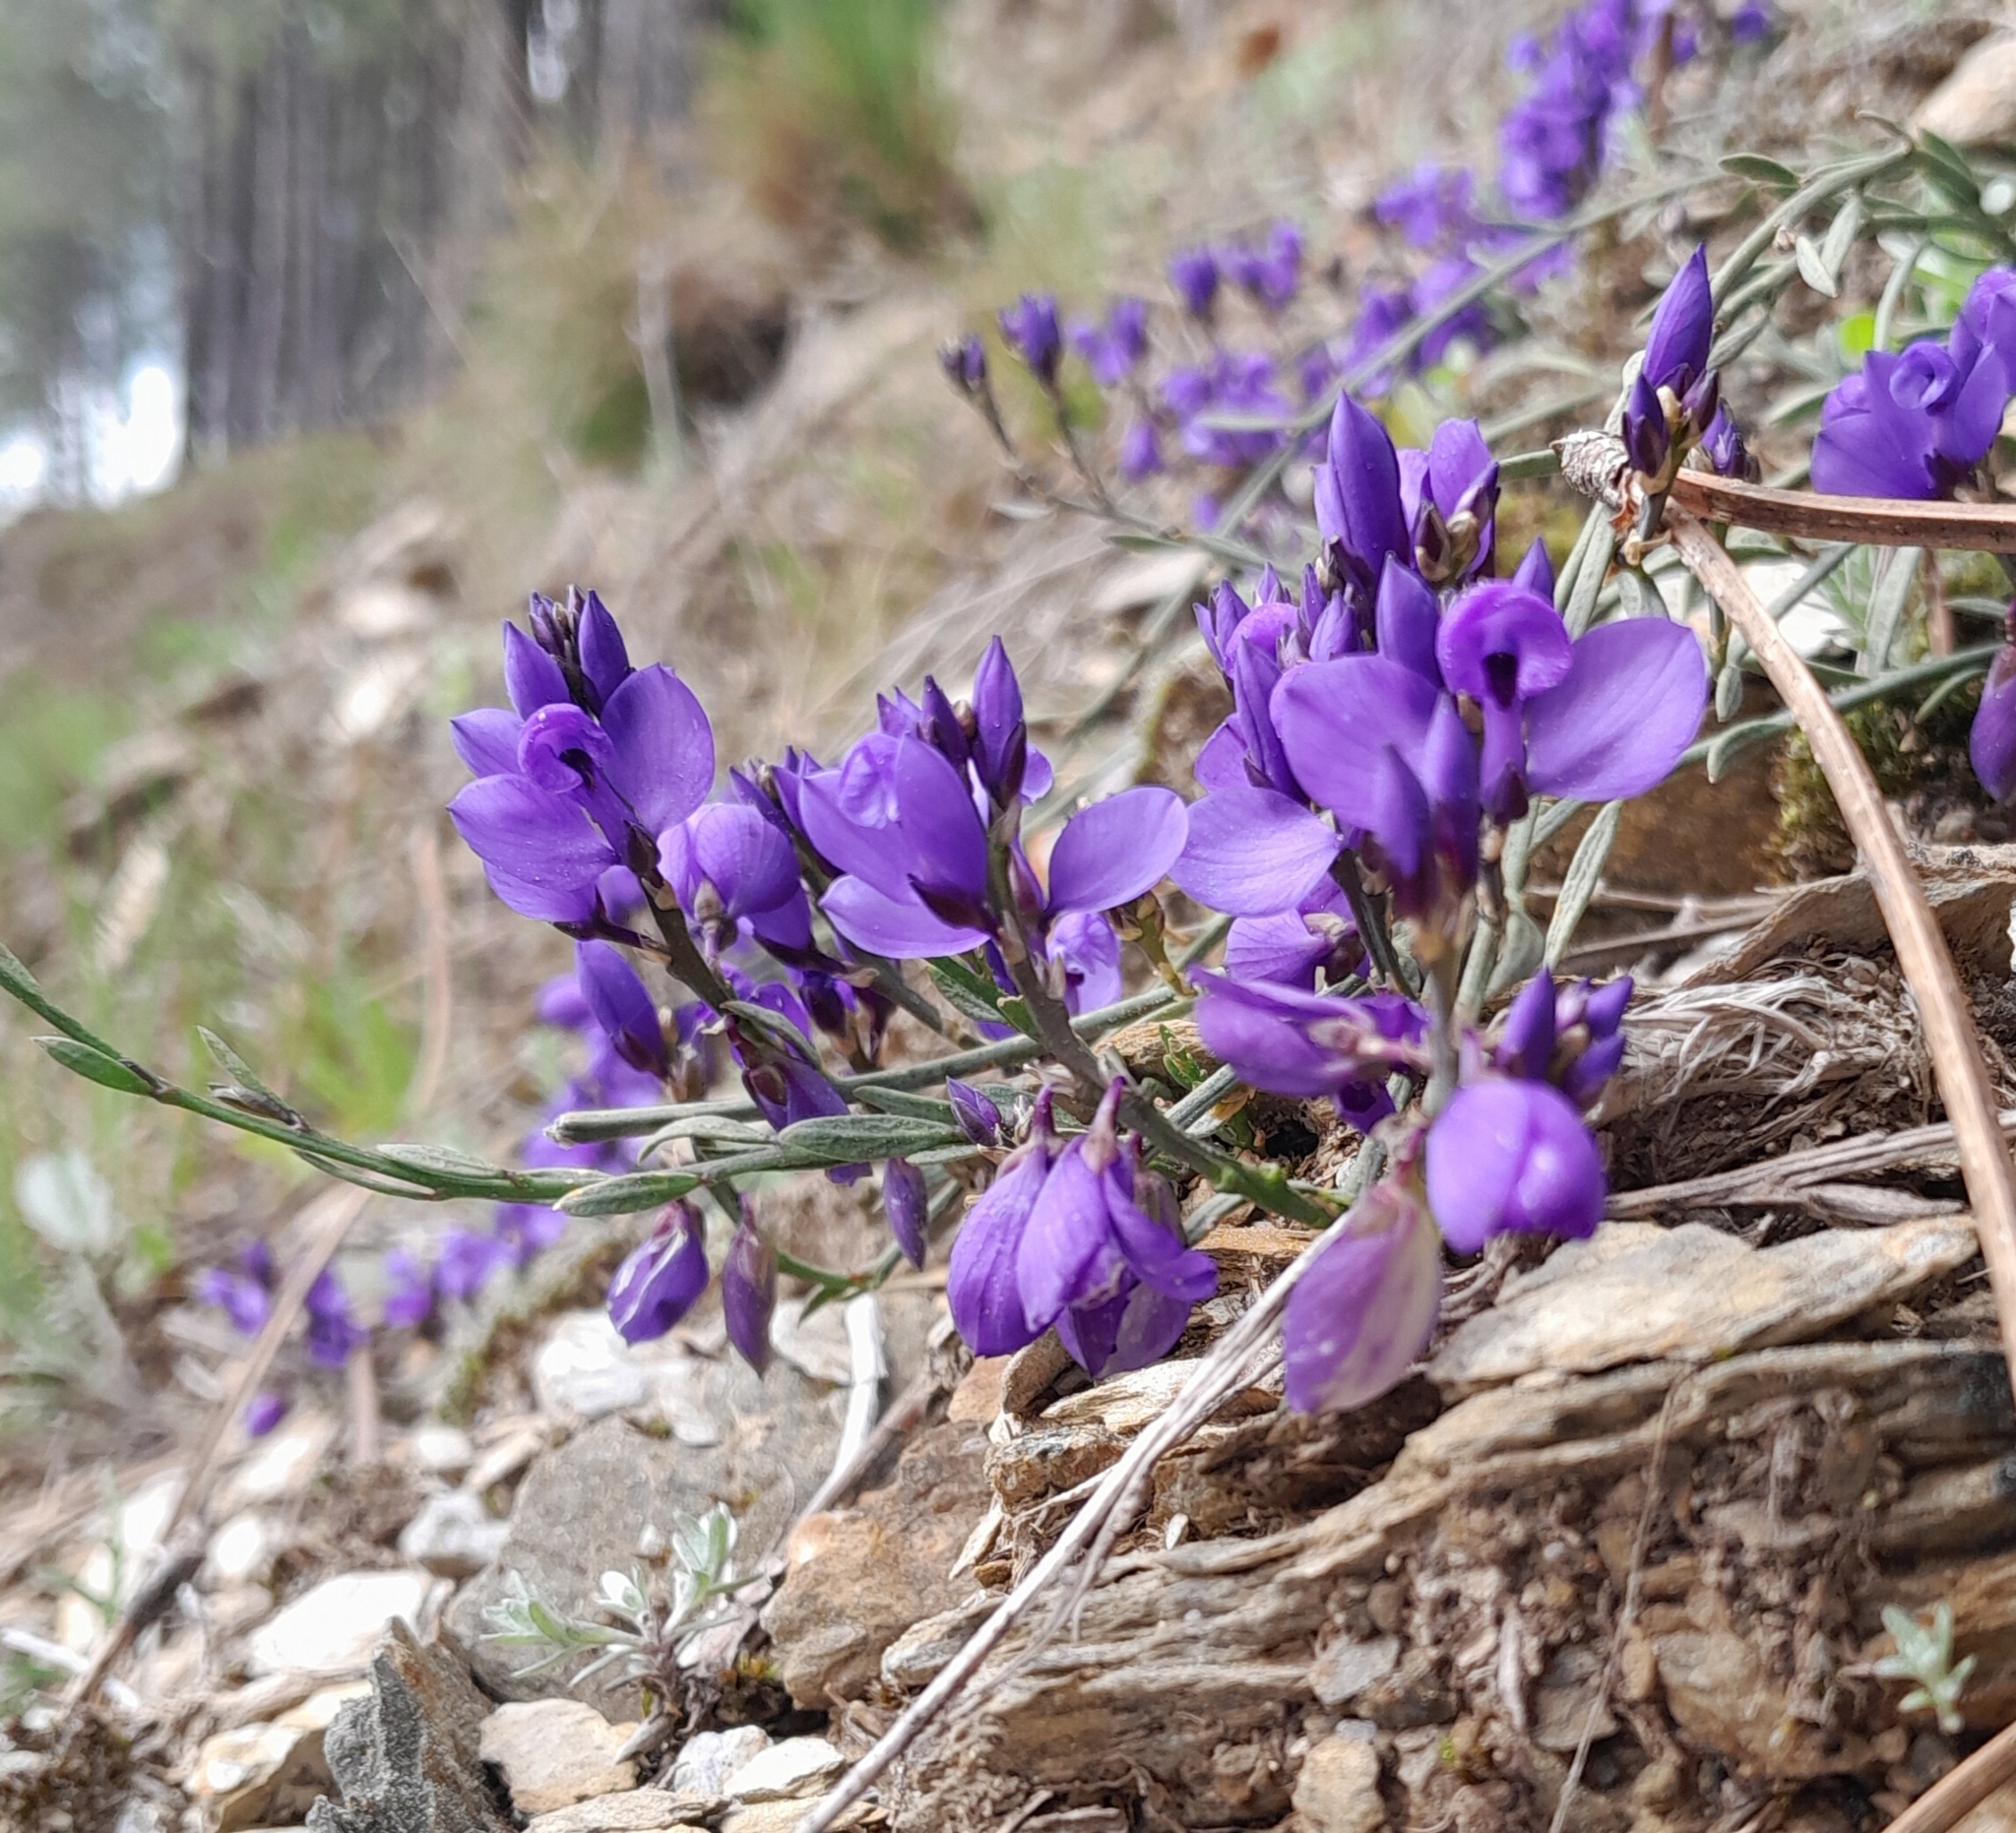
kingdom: Plantae
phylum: Tracheophyta
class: Magnoliopsida
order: Fabales
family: Polygalaceae
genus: Polygala
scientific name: Polygala microphylla
